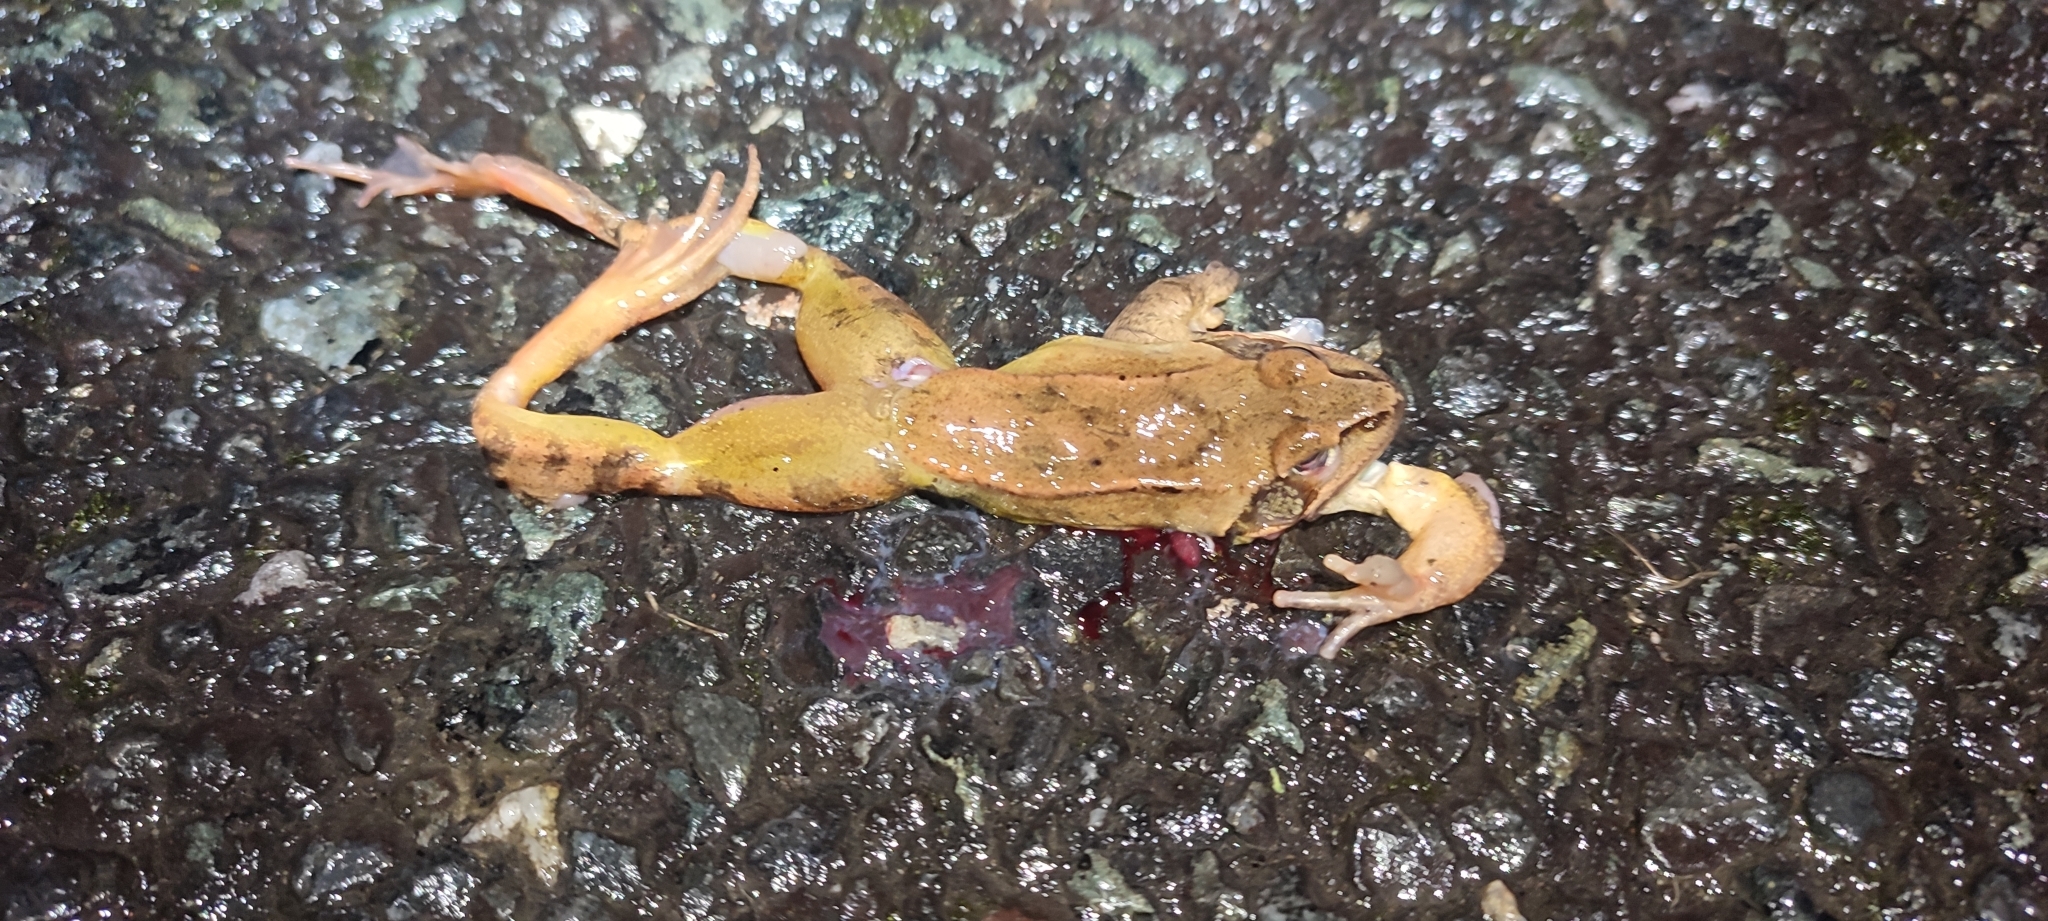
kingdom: Animalia
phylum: Chordata
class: Amphibia
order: Anura
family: Ranidae
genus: Rana
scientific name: Rana dalmatina
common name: Agile frog
